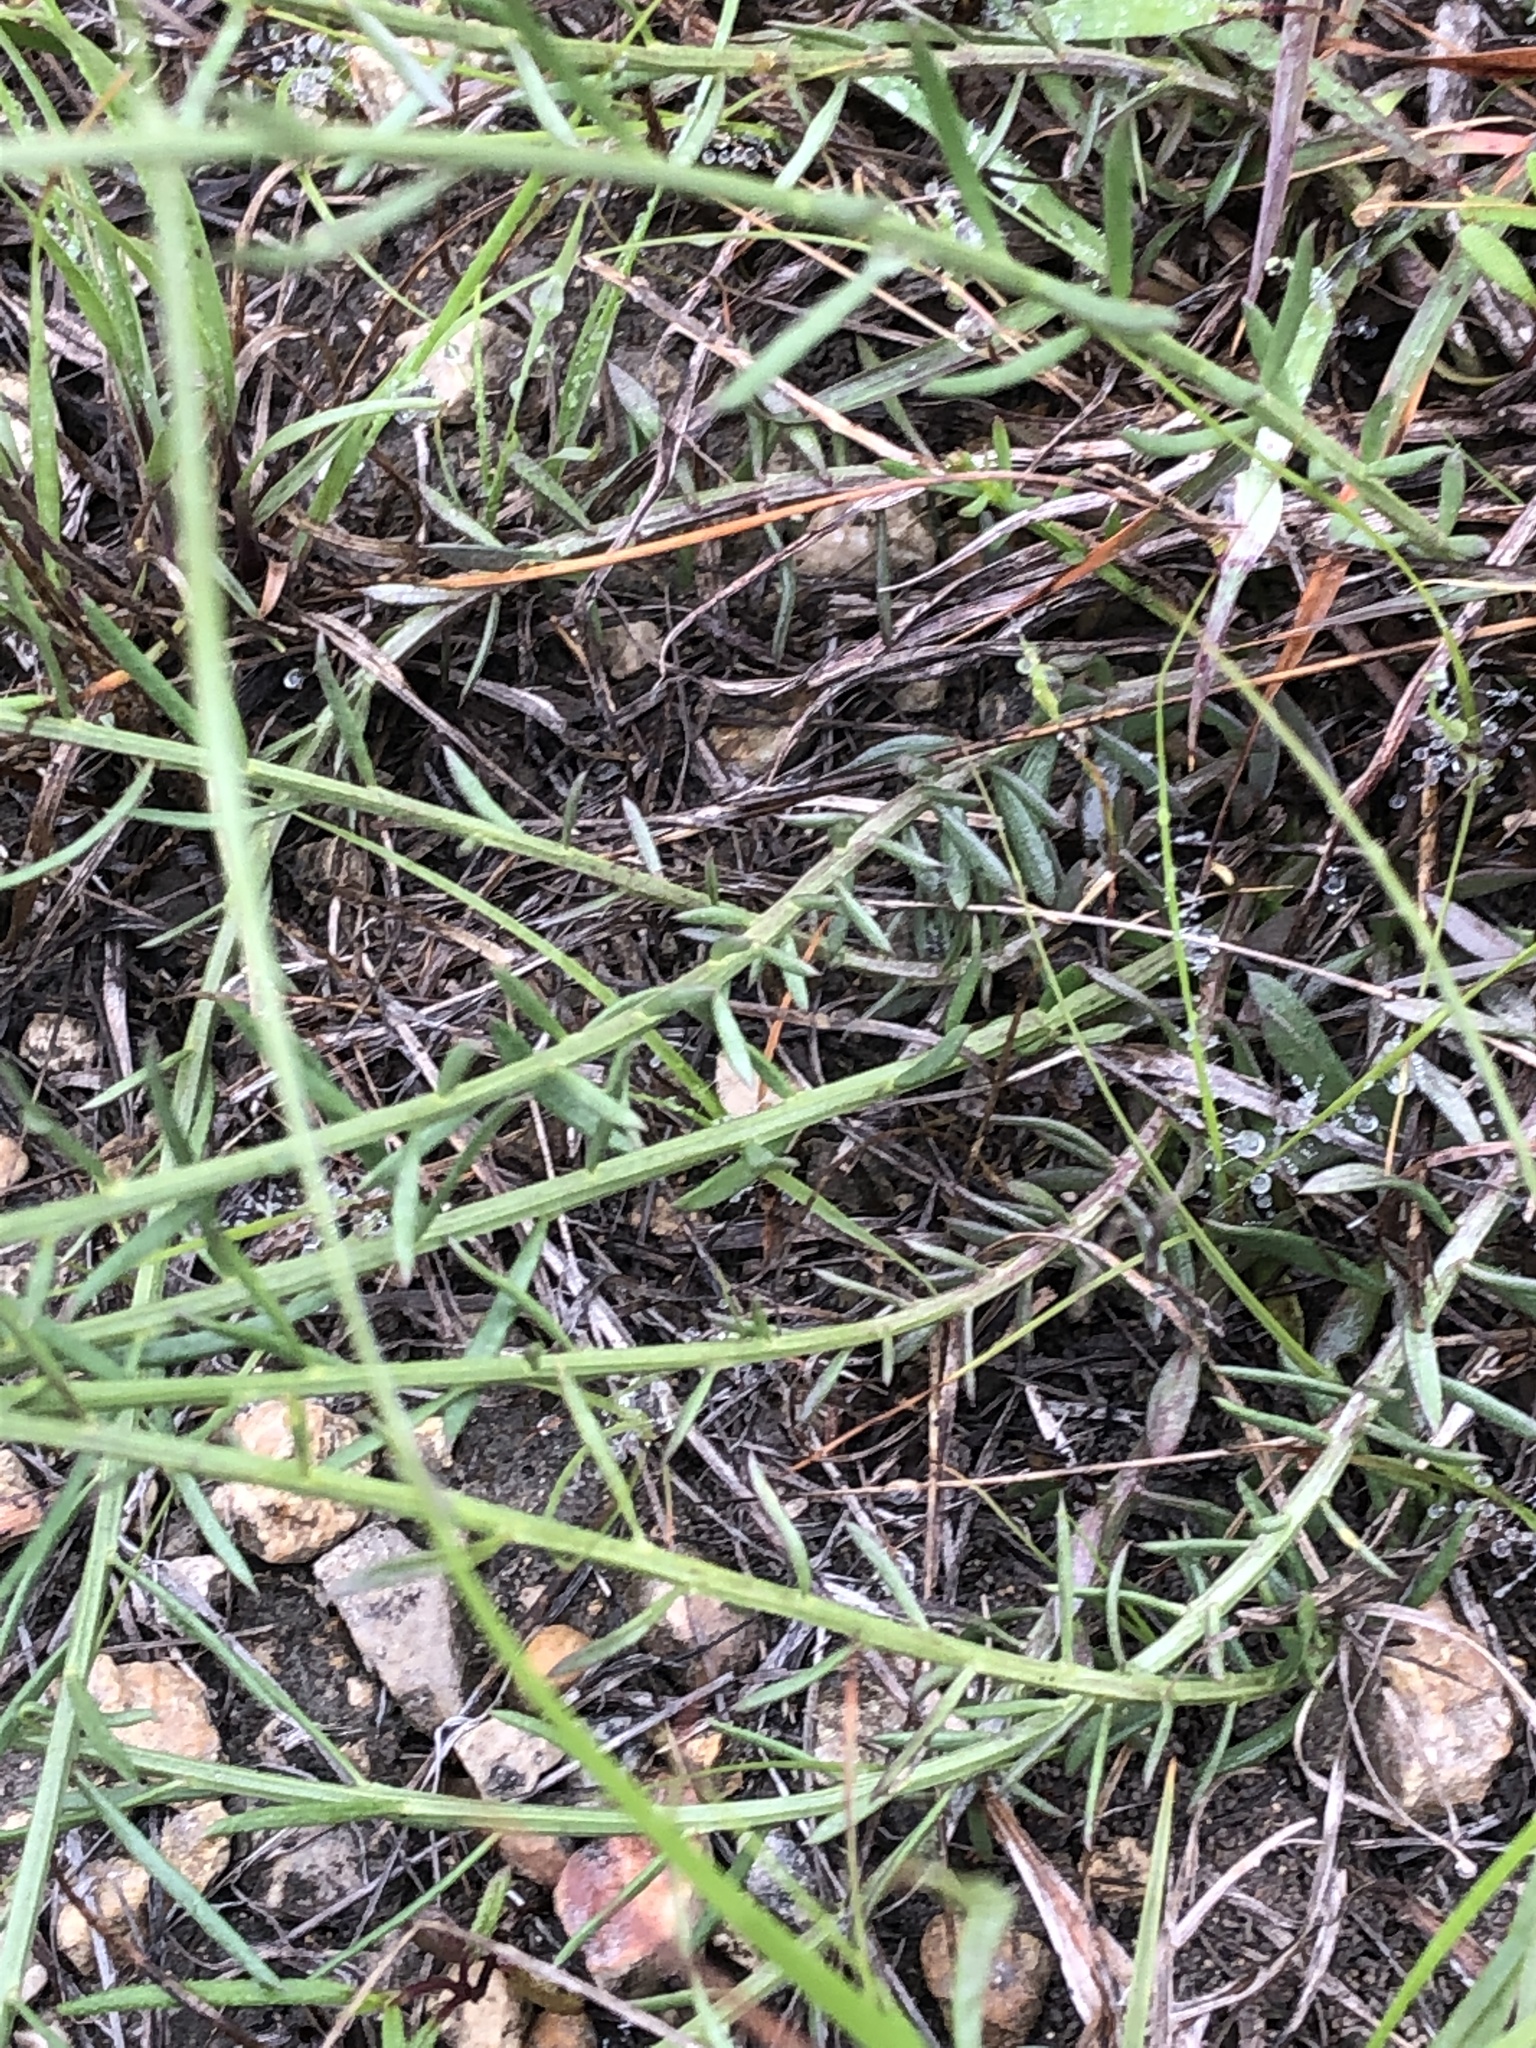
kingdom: Plantae
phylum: Tracheophyta
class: Magnoliopsida
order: Fabales
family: Polygalaceae
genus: Polygala
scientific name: Polygala alba
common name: White milkwort
